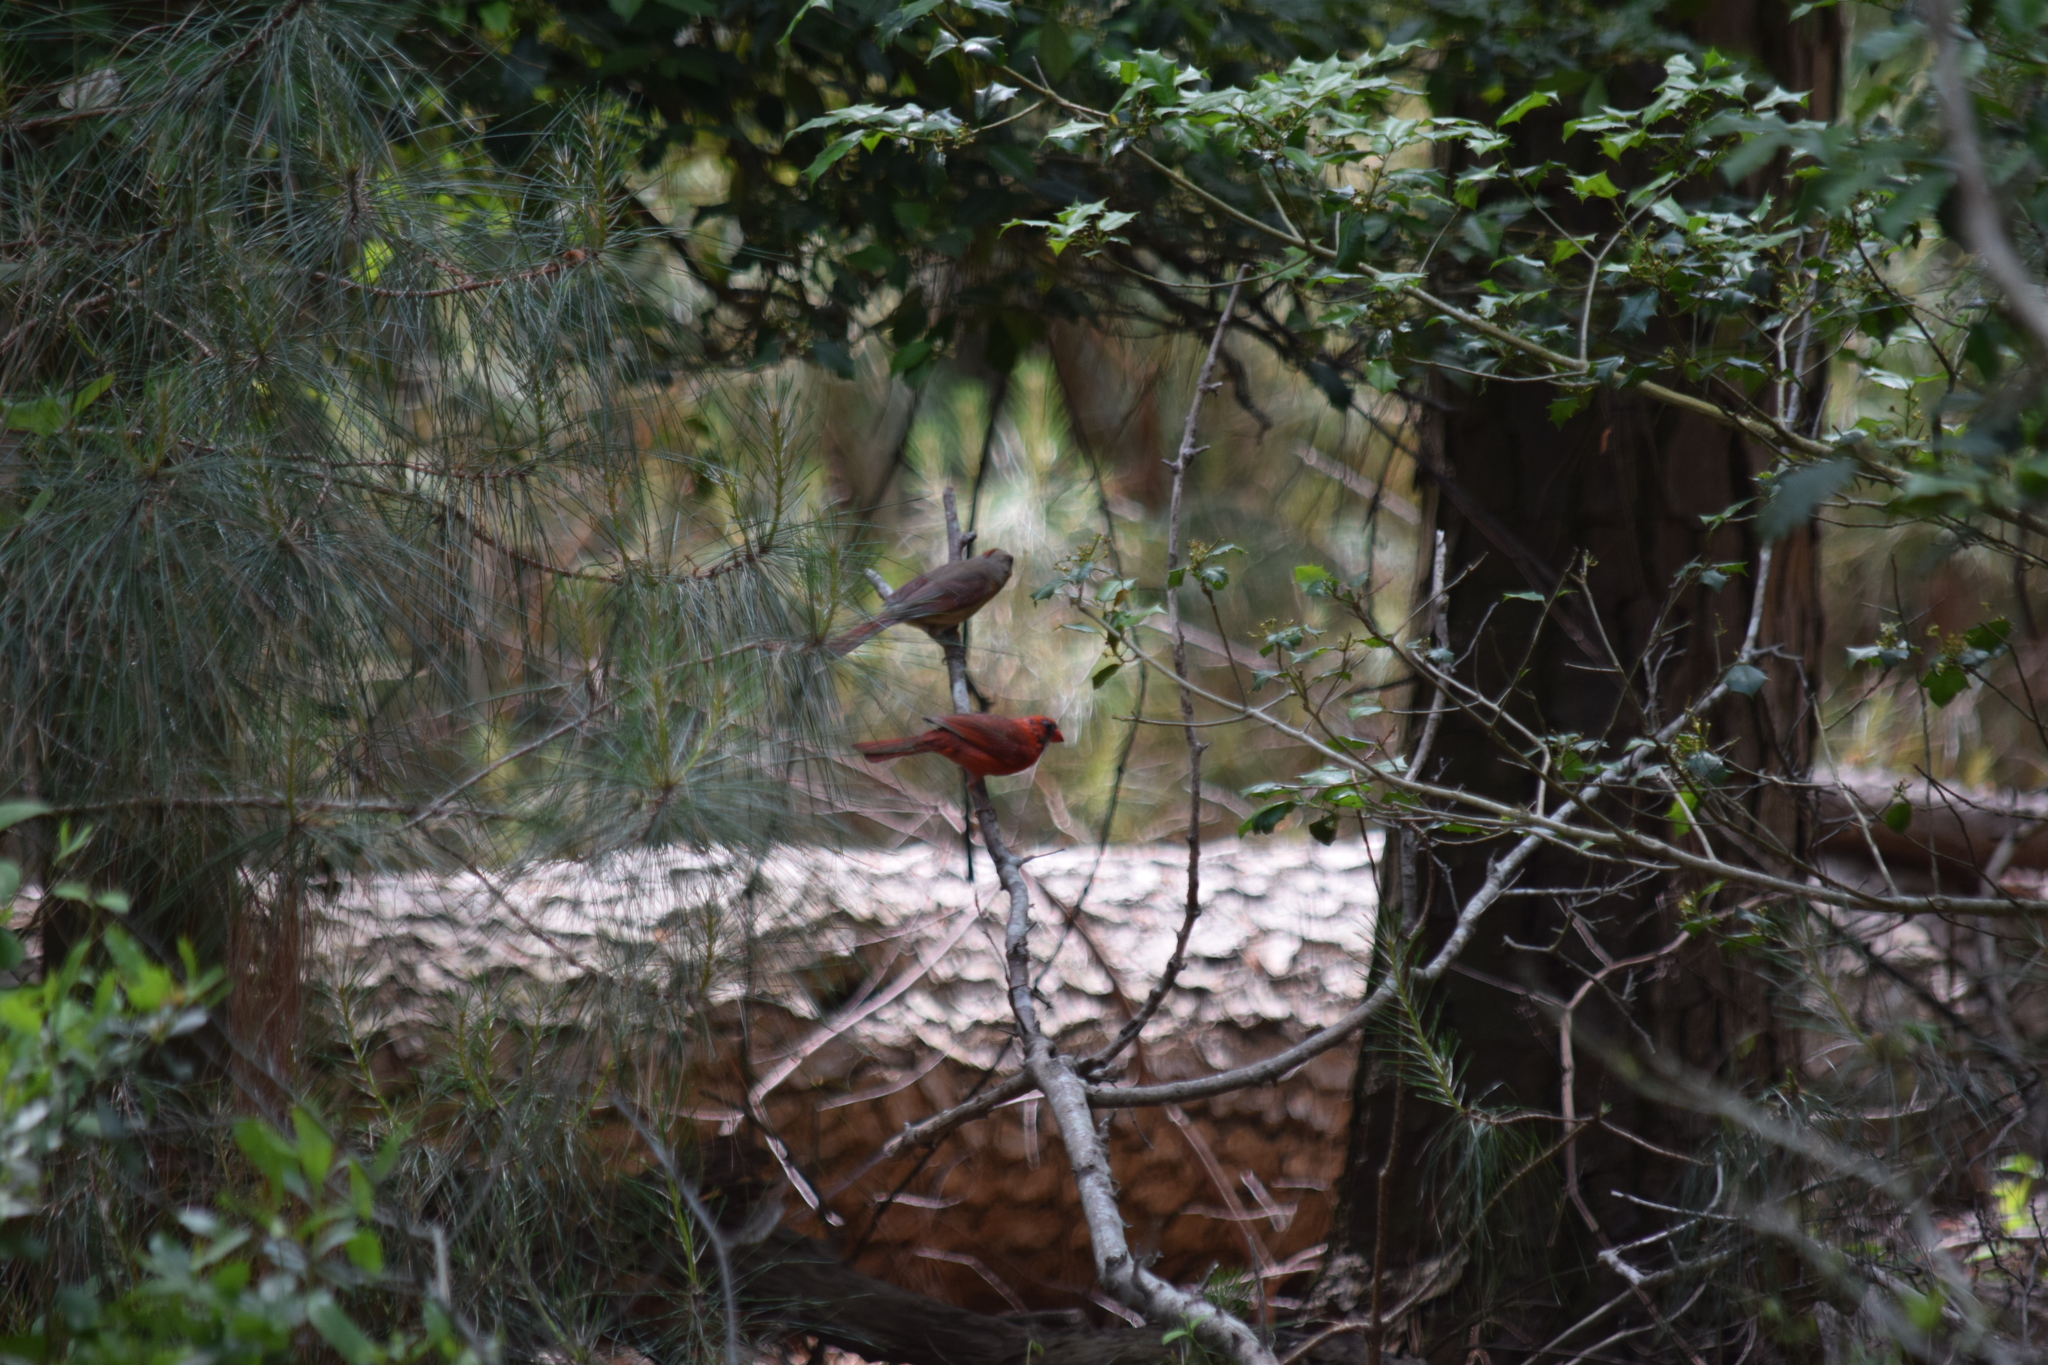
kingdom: Animalia
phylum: Chordata
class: Aves
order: Passeriformes
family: Cardinalidae
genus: Cardinalis
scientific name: Cardinalis cardinalis
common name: Northern cardinal
